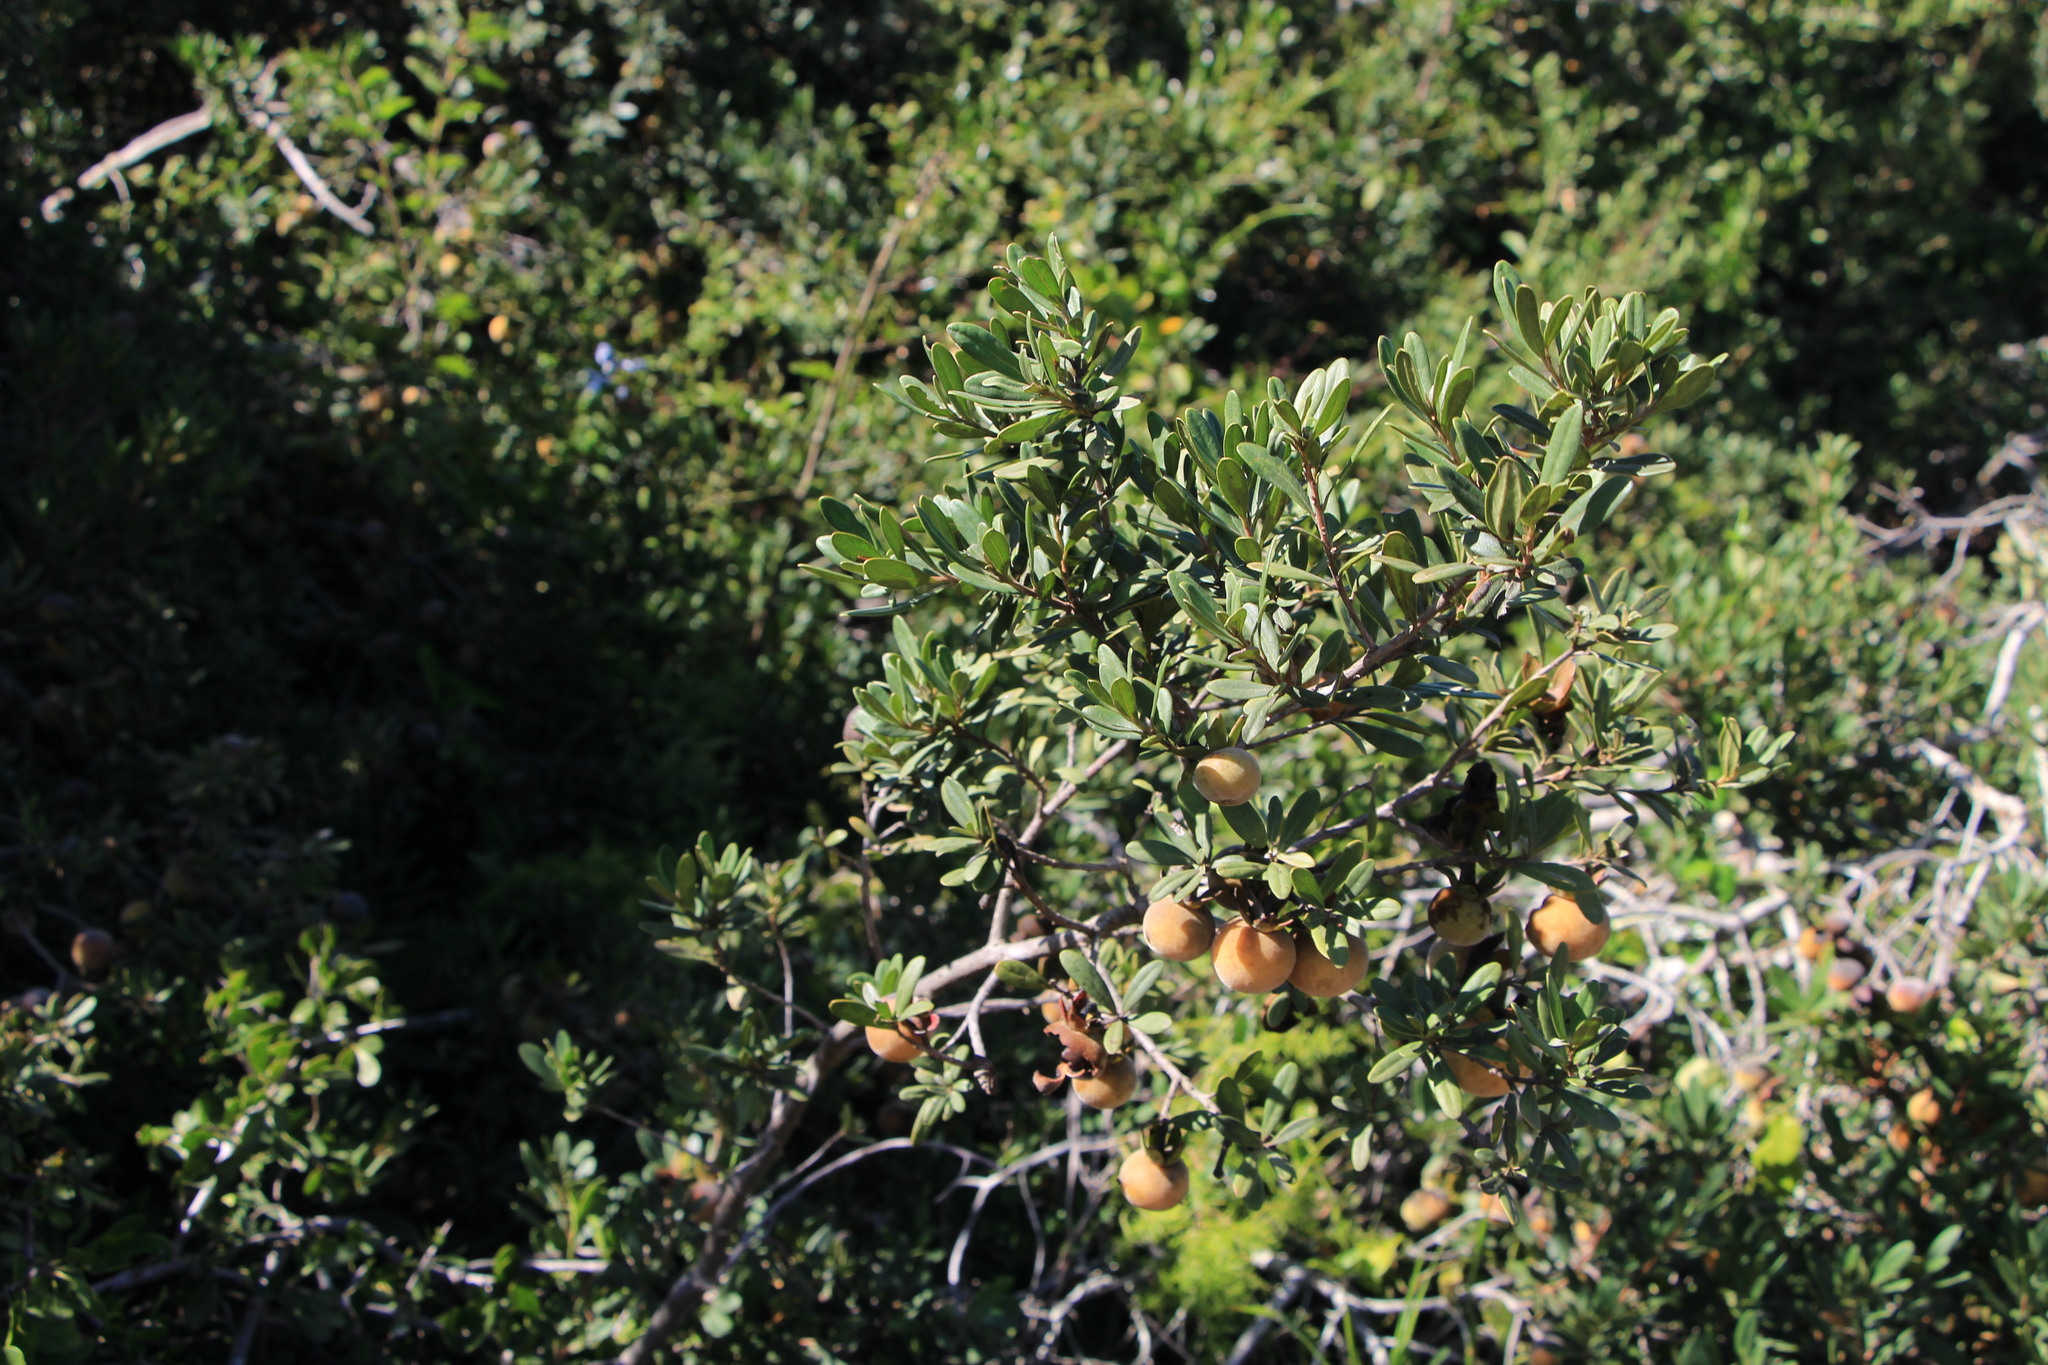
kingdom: Plantae
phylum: Tracheophyta
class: Magnoliopsida
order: Ericales
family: Ebenaceae
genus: Diospyros
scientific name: Diospyros dichrophylla
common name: Common star-apple
